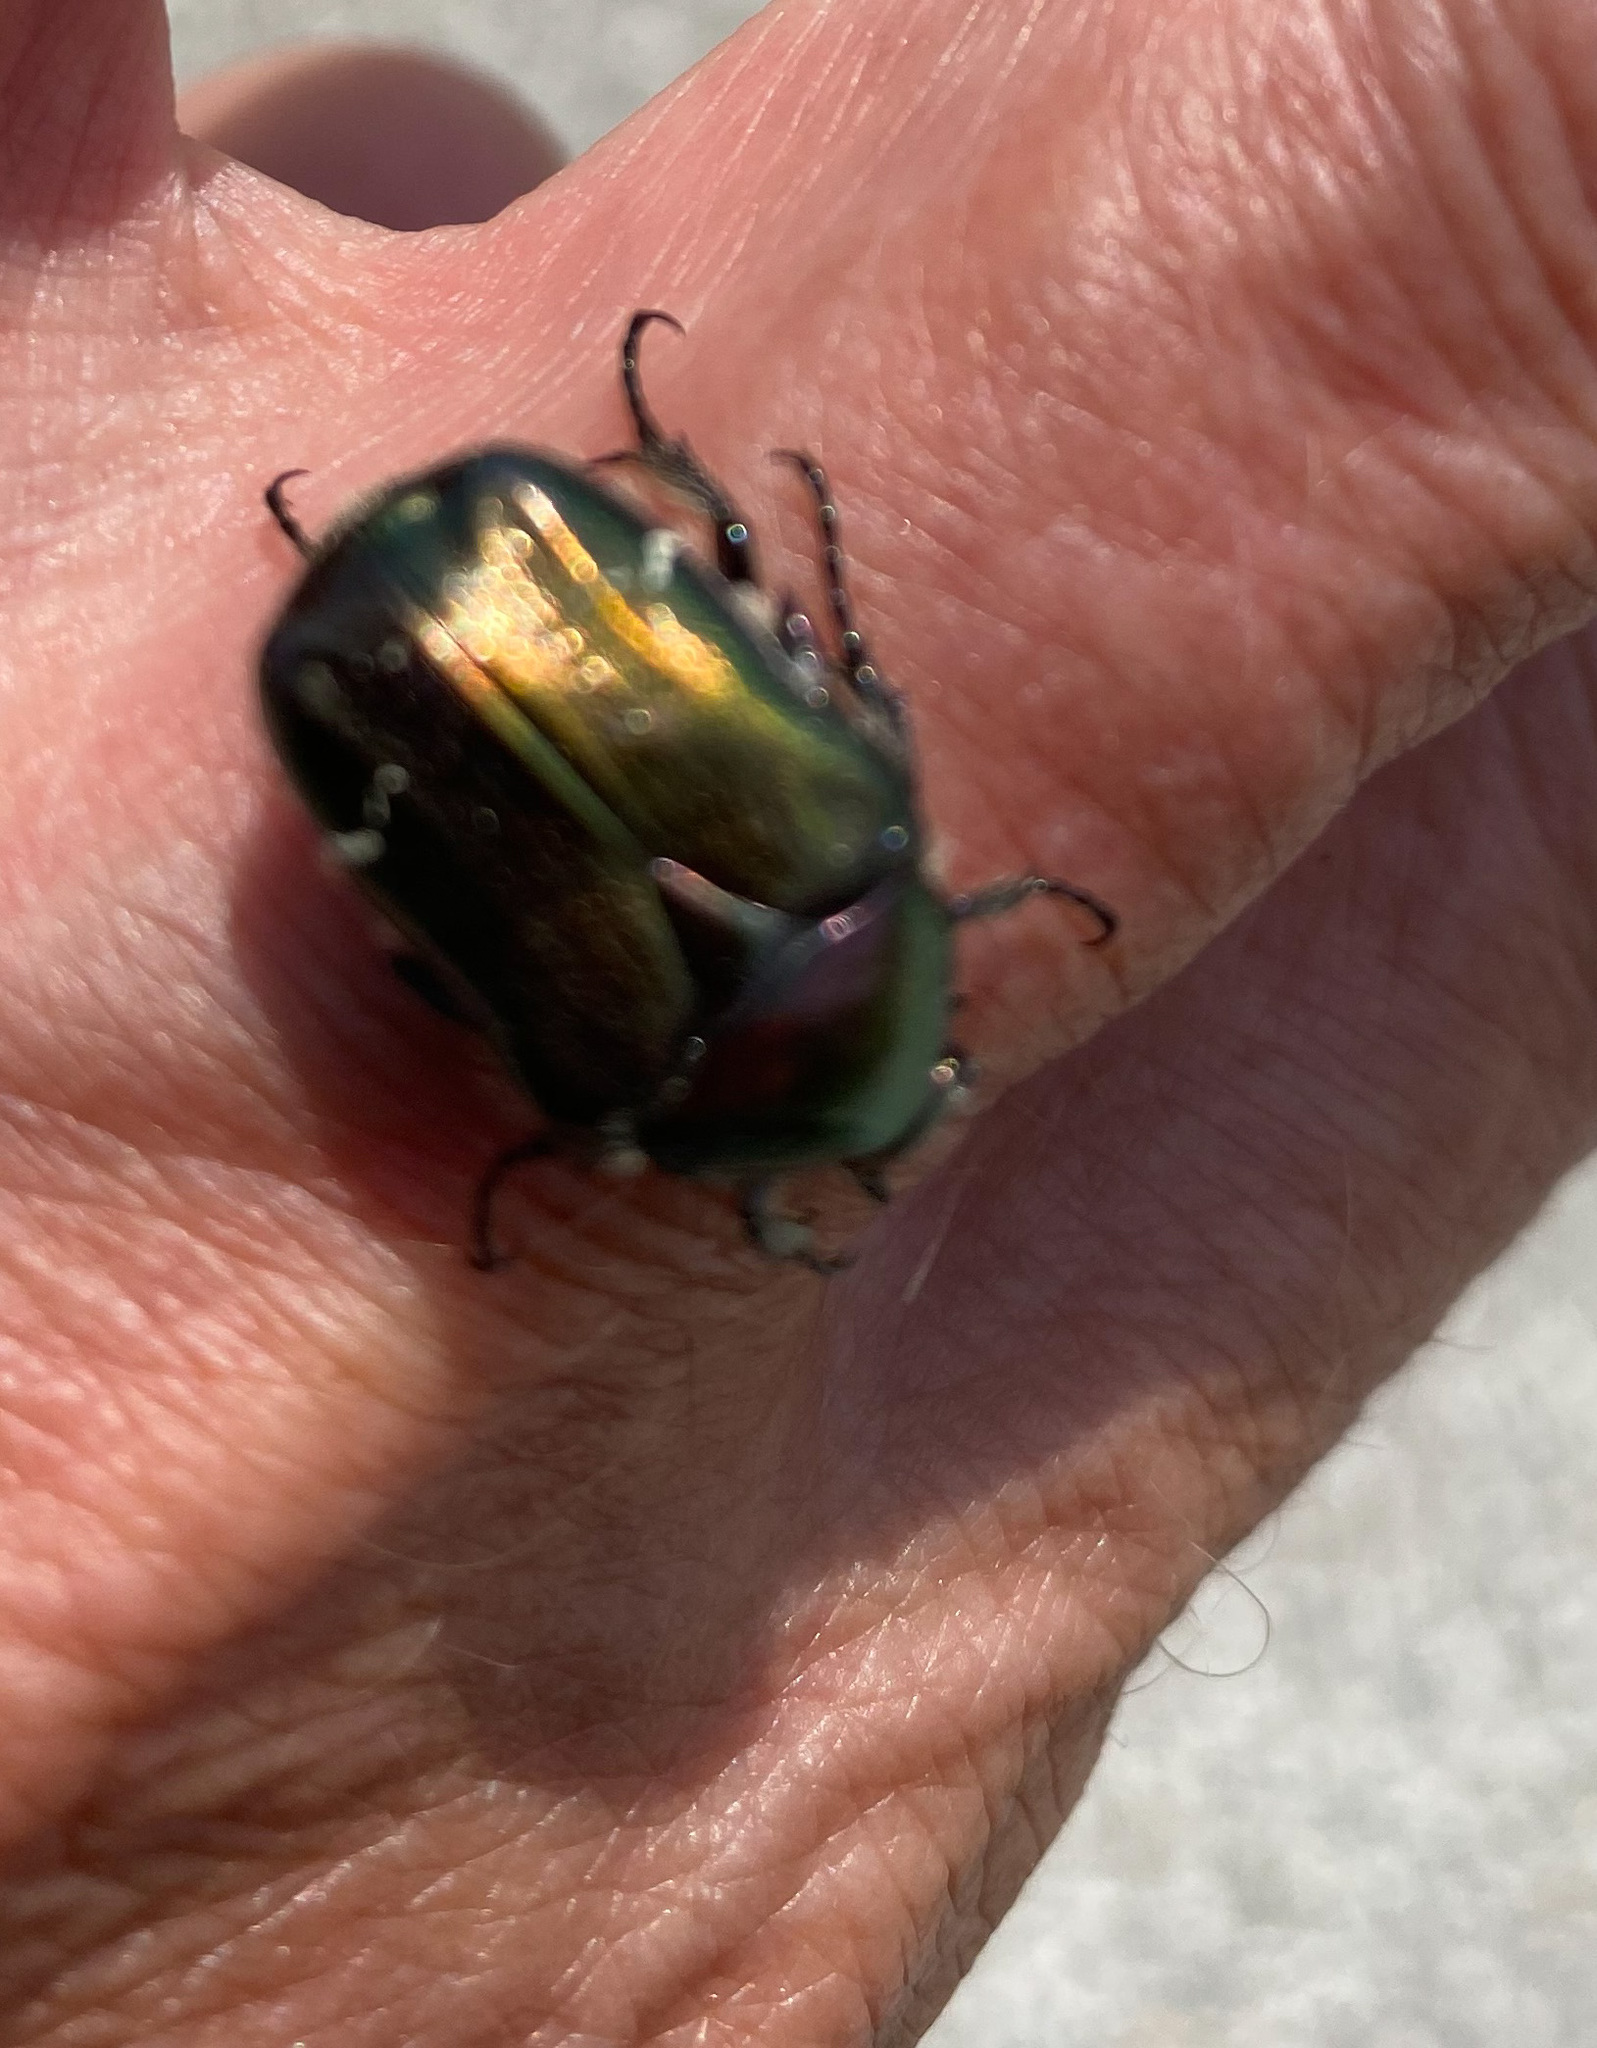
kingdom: Animalia
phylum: Arthropoda
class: Insecta
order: Coleoptera
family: Scarabaeidae
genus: Cetonia
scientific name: Cetonia aurata
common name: Rose chafer
